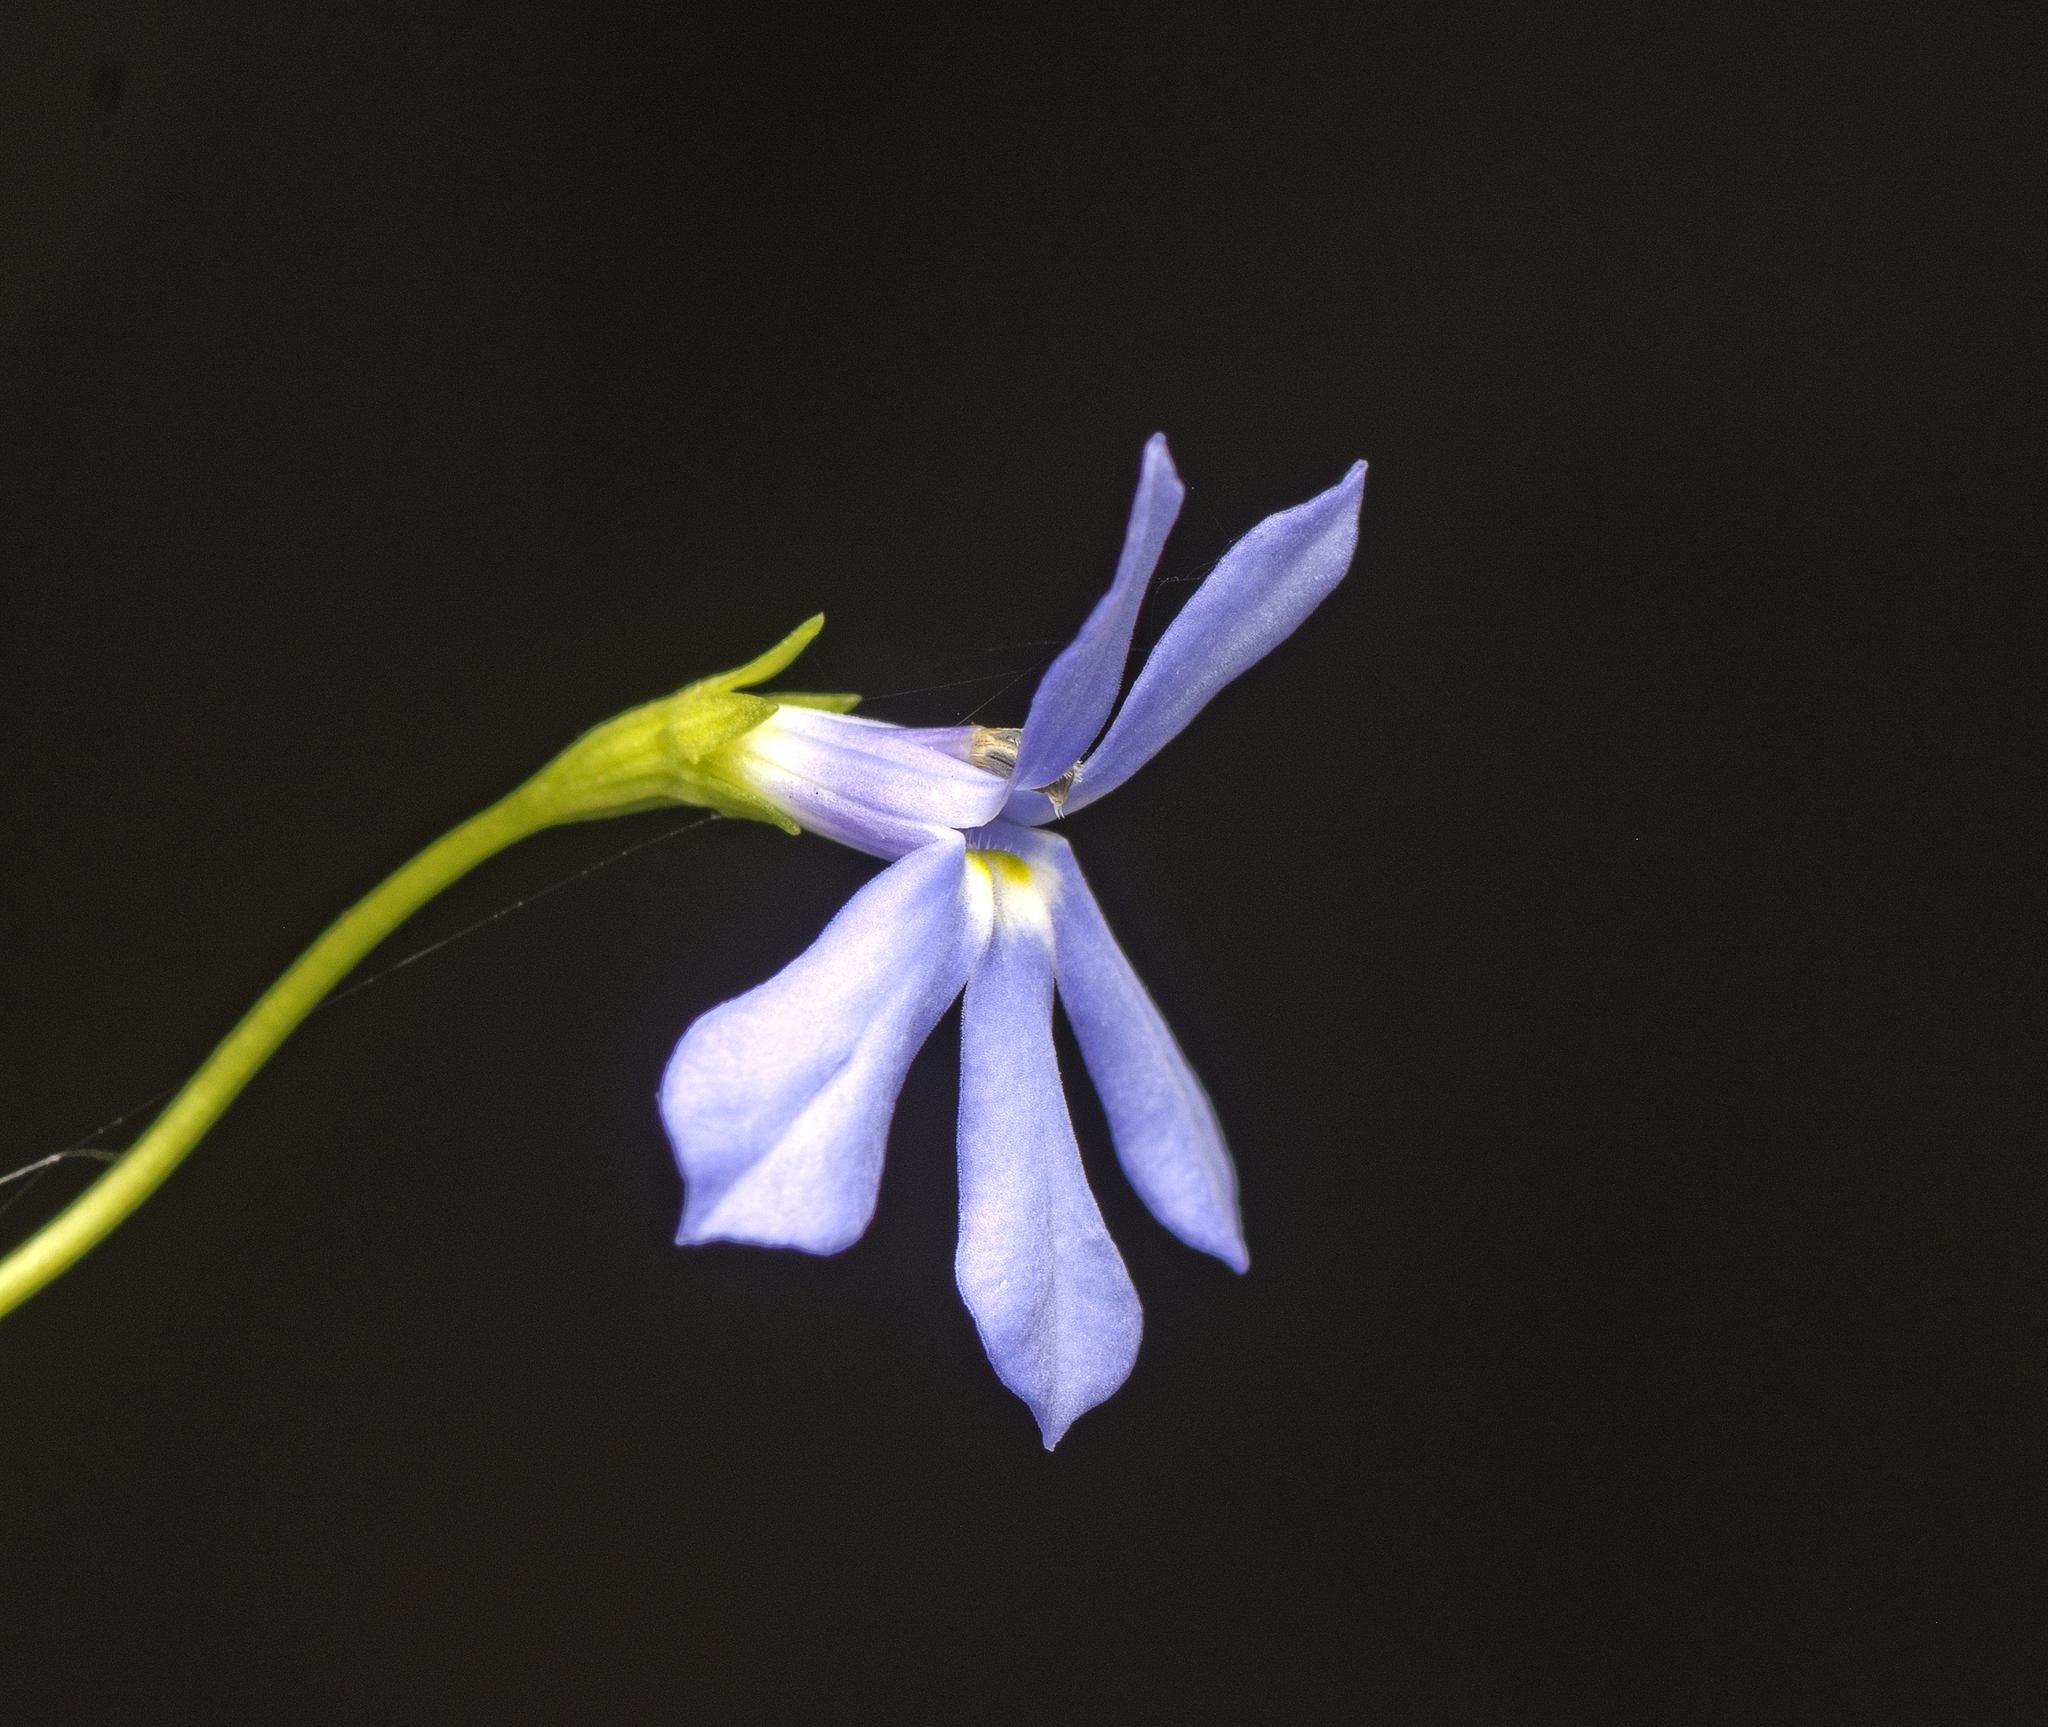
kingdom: Plantae
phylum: Tracheophyta
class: Magnoliopsida
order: Asterales
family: Campanulaceae
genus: Lobelia
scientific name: Lobelia quadrangularis
